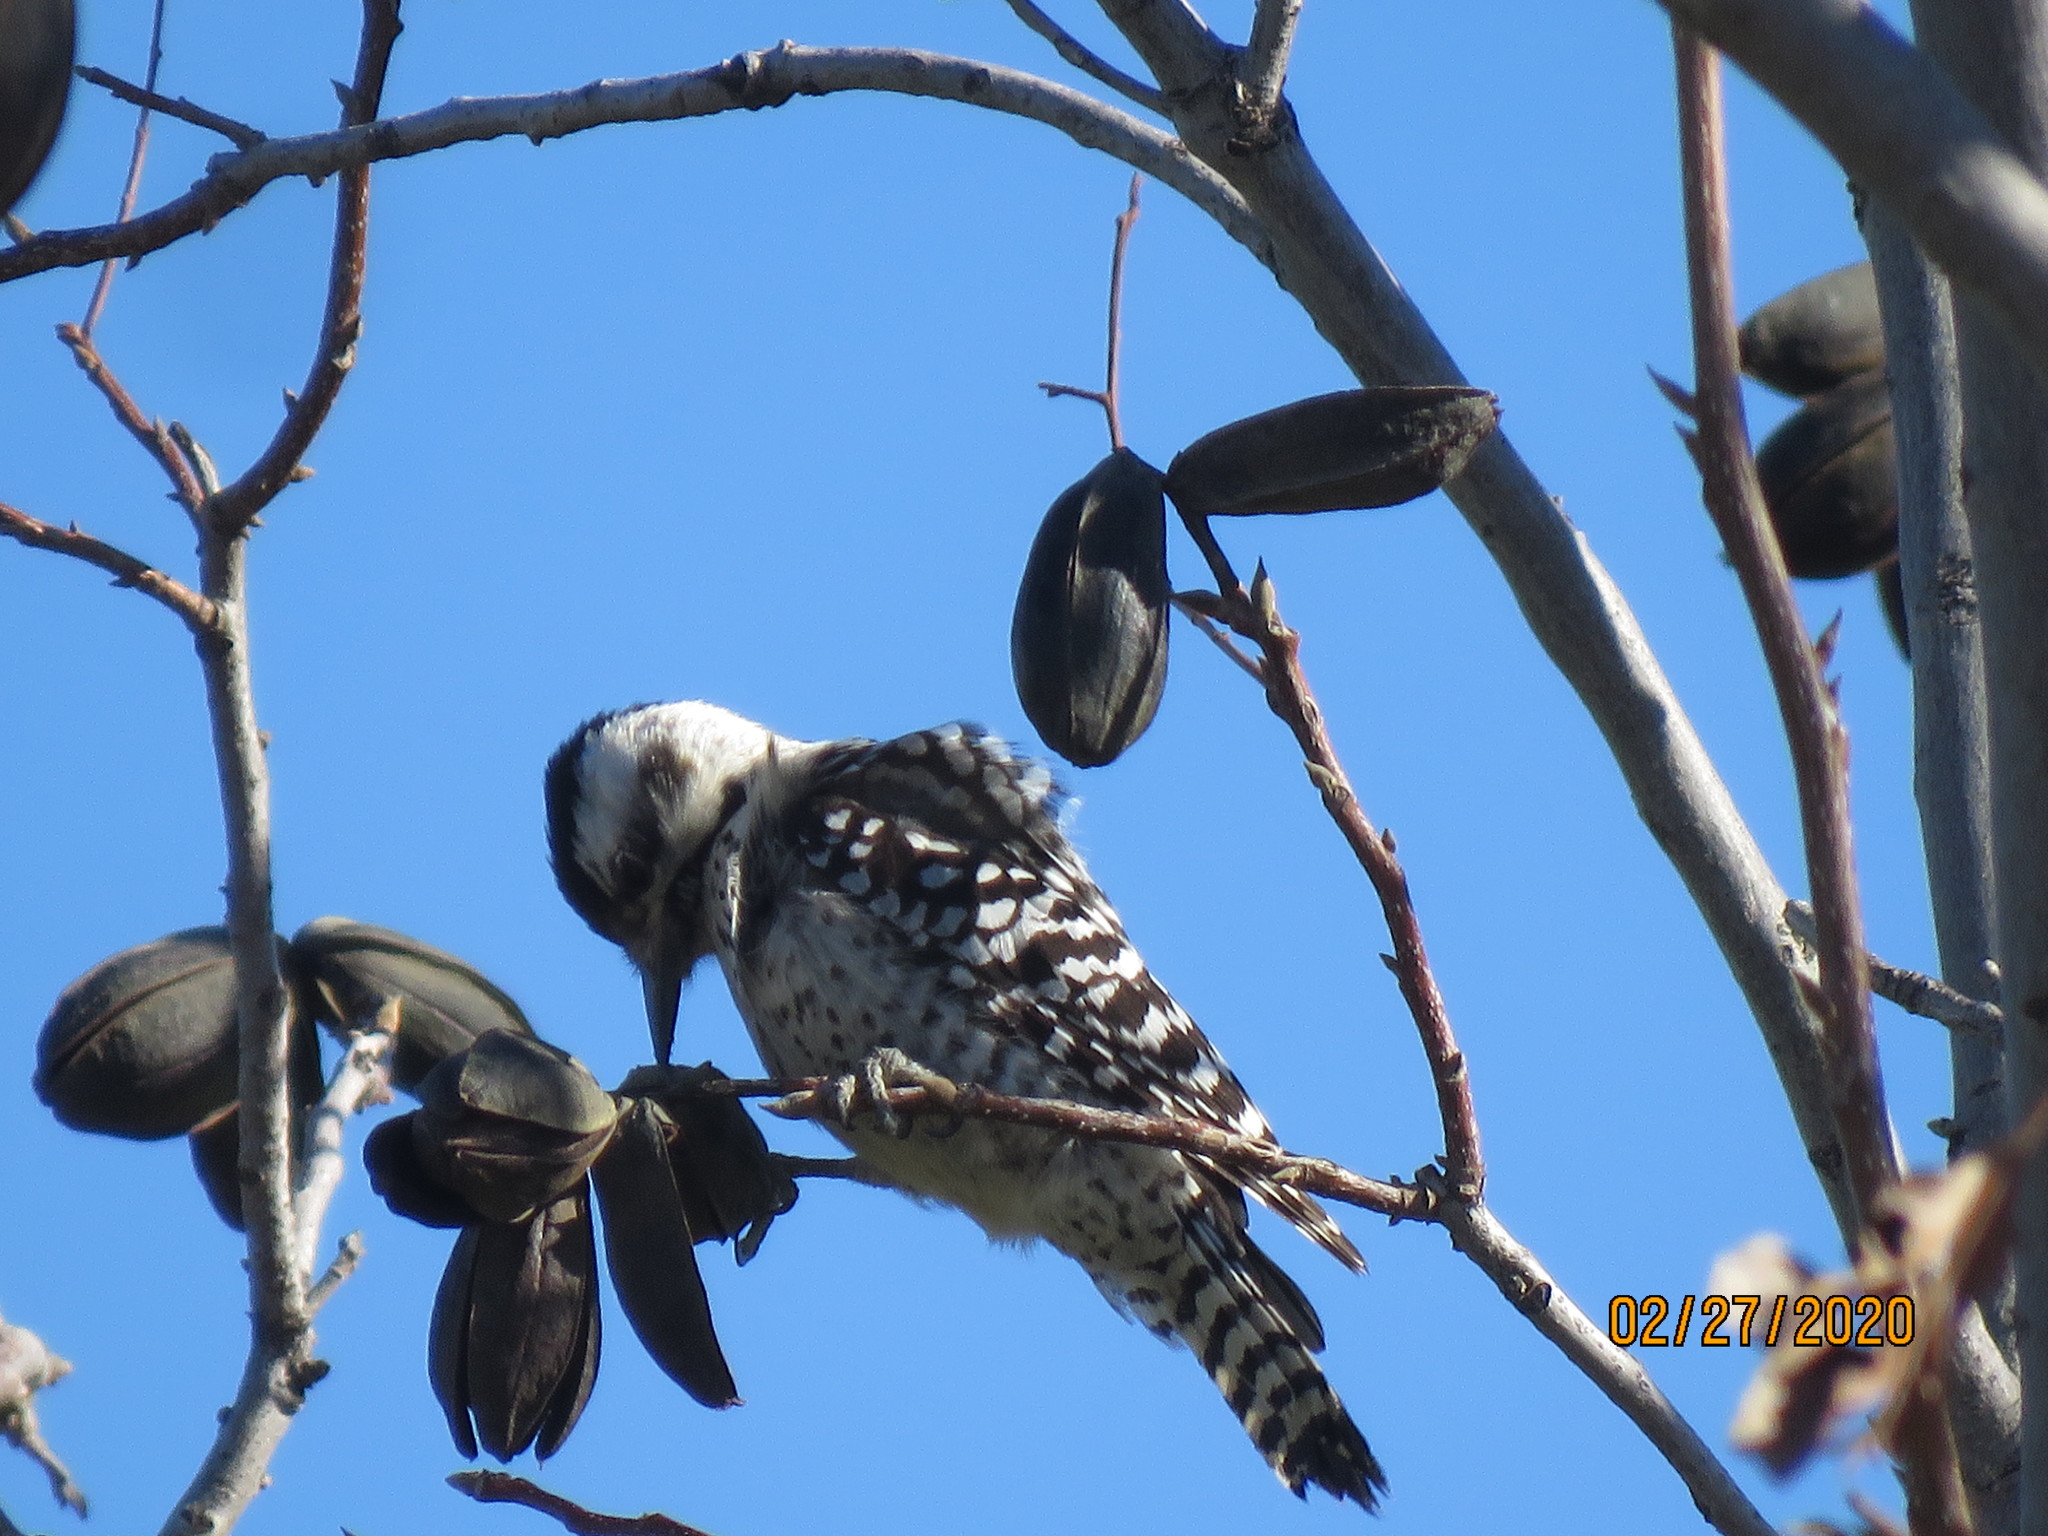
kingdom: Animalia
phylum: Chordata
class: Aves
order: Piciformes
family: Picidae
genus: Dryobates
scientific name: Dryobates scalaris
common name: Ladder-backed woodpecker
